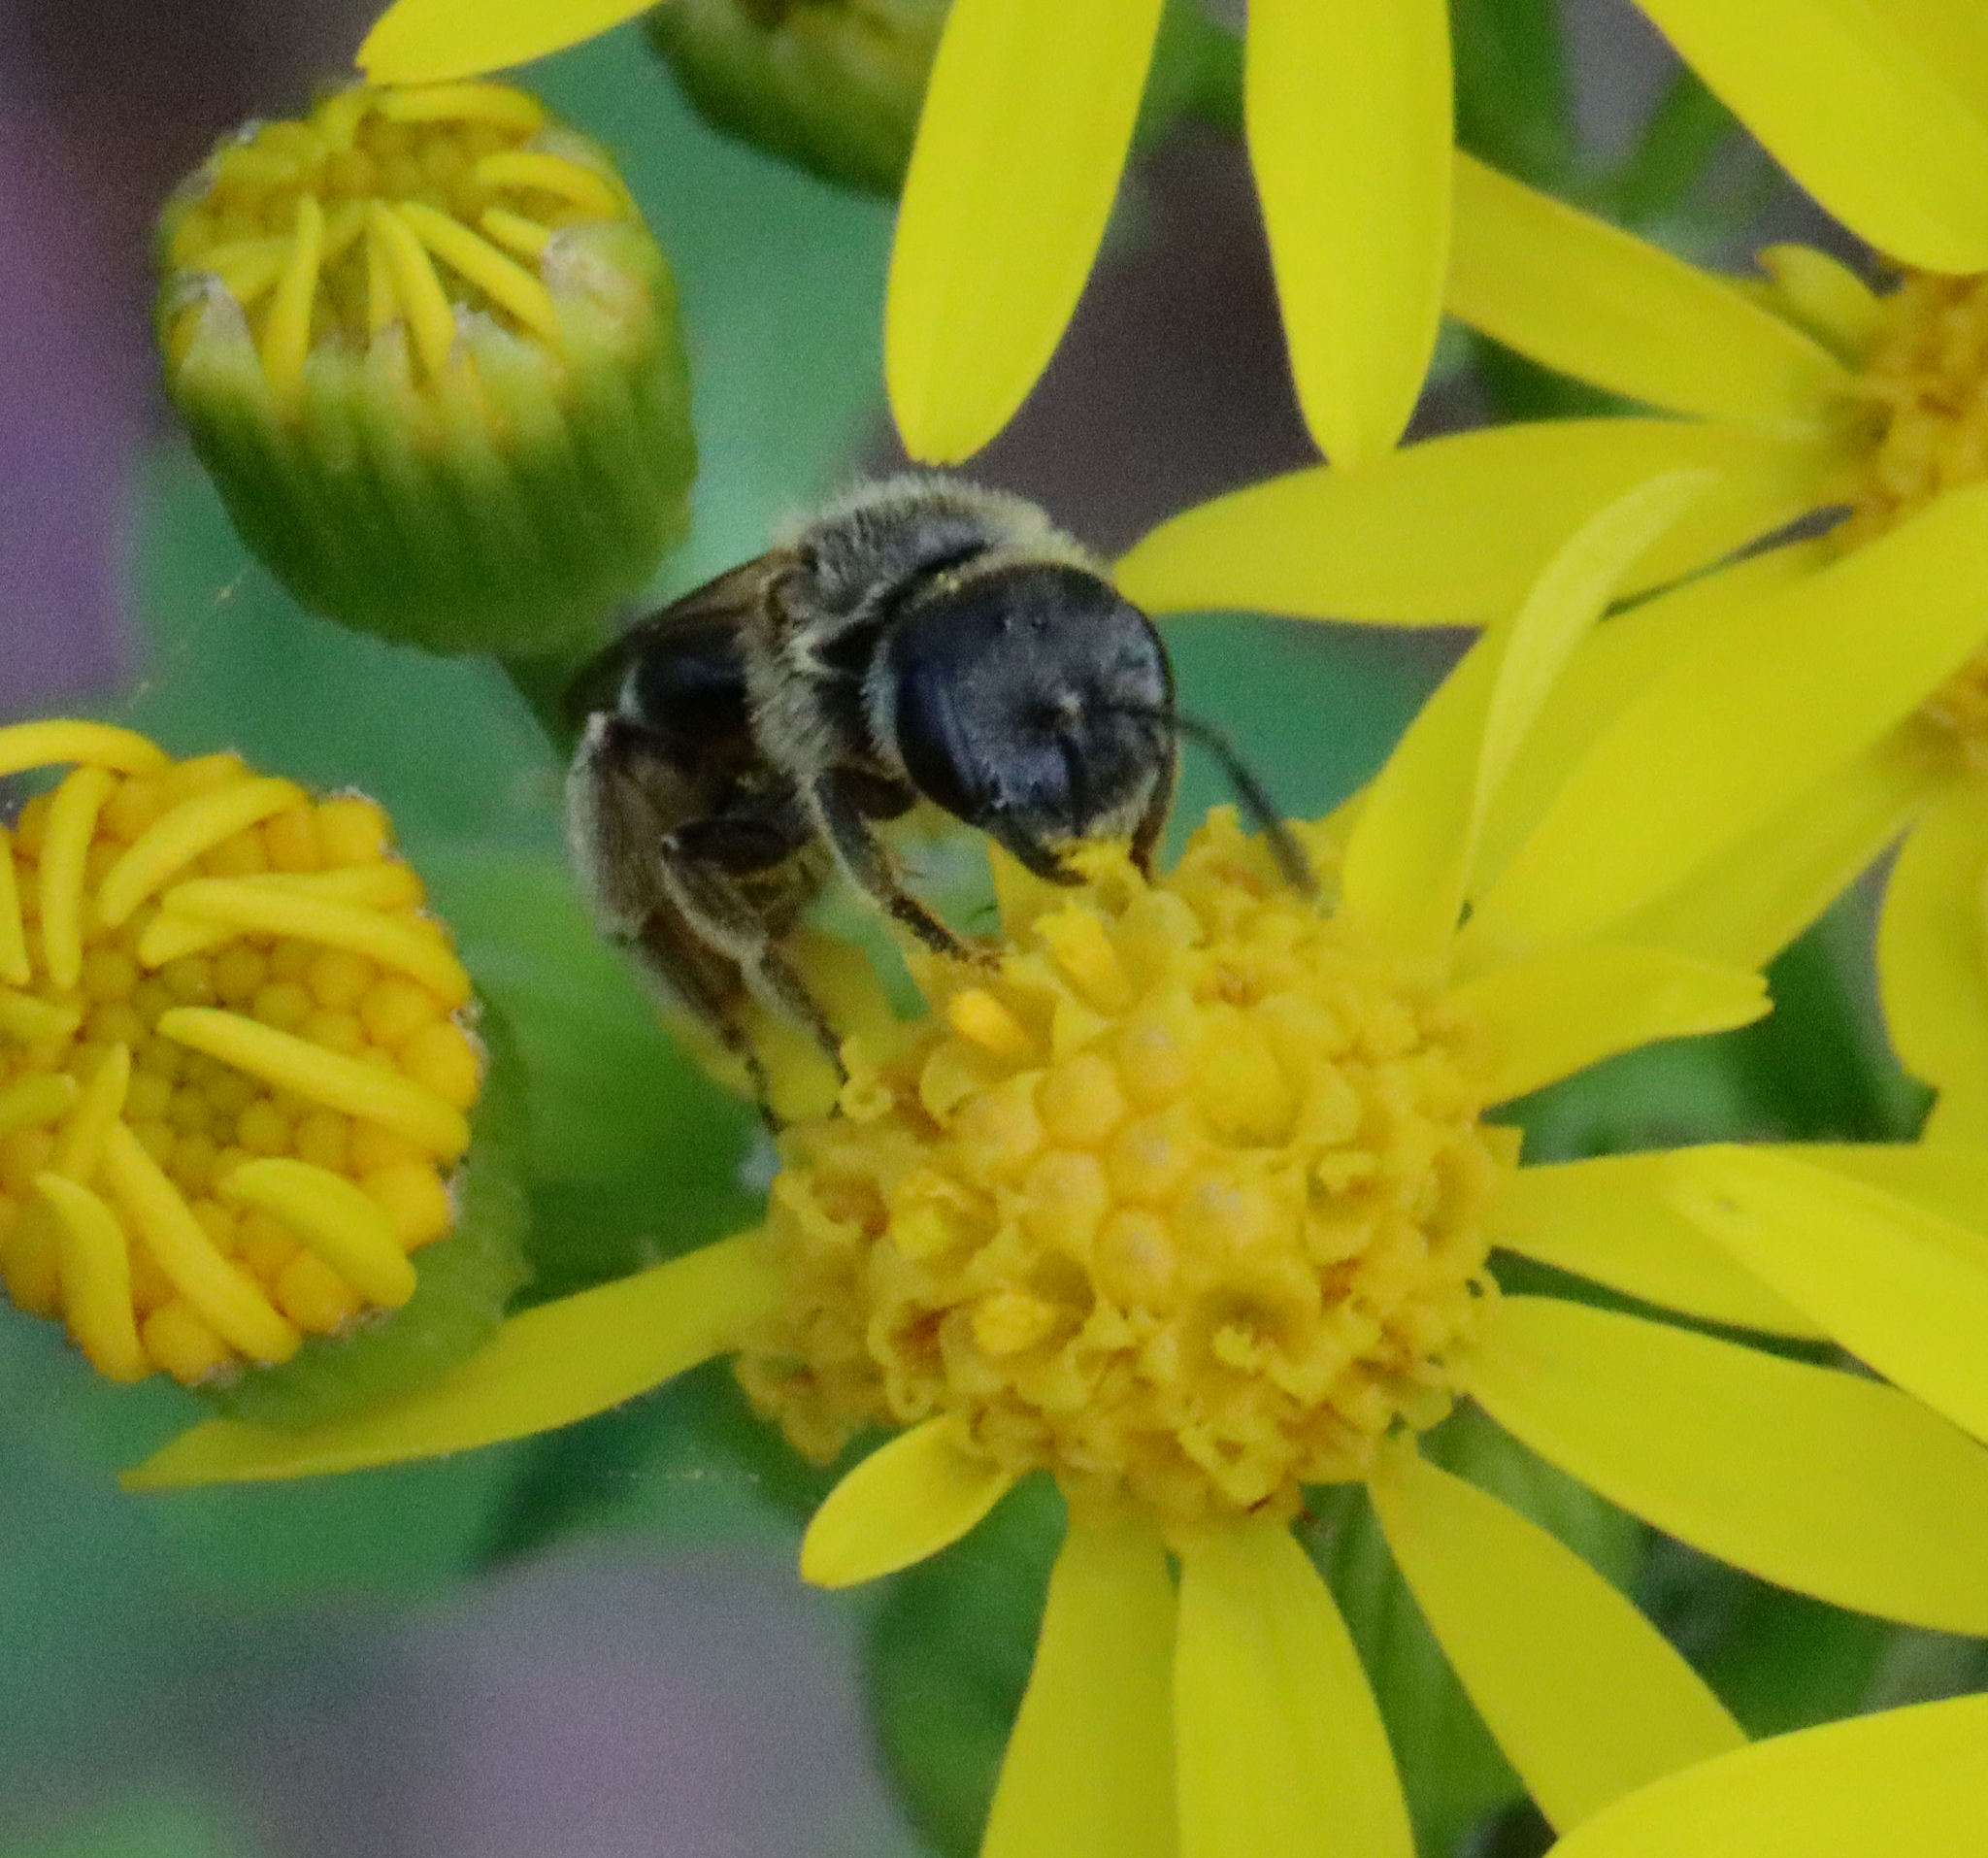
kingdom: Animalia
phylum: Arthropoda
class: Insecta
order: Hymenoptera
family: Halictidae
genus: Halictus
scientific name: Halictus ligatus
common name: Ligated furrow bee
